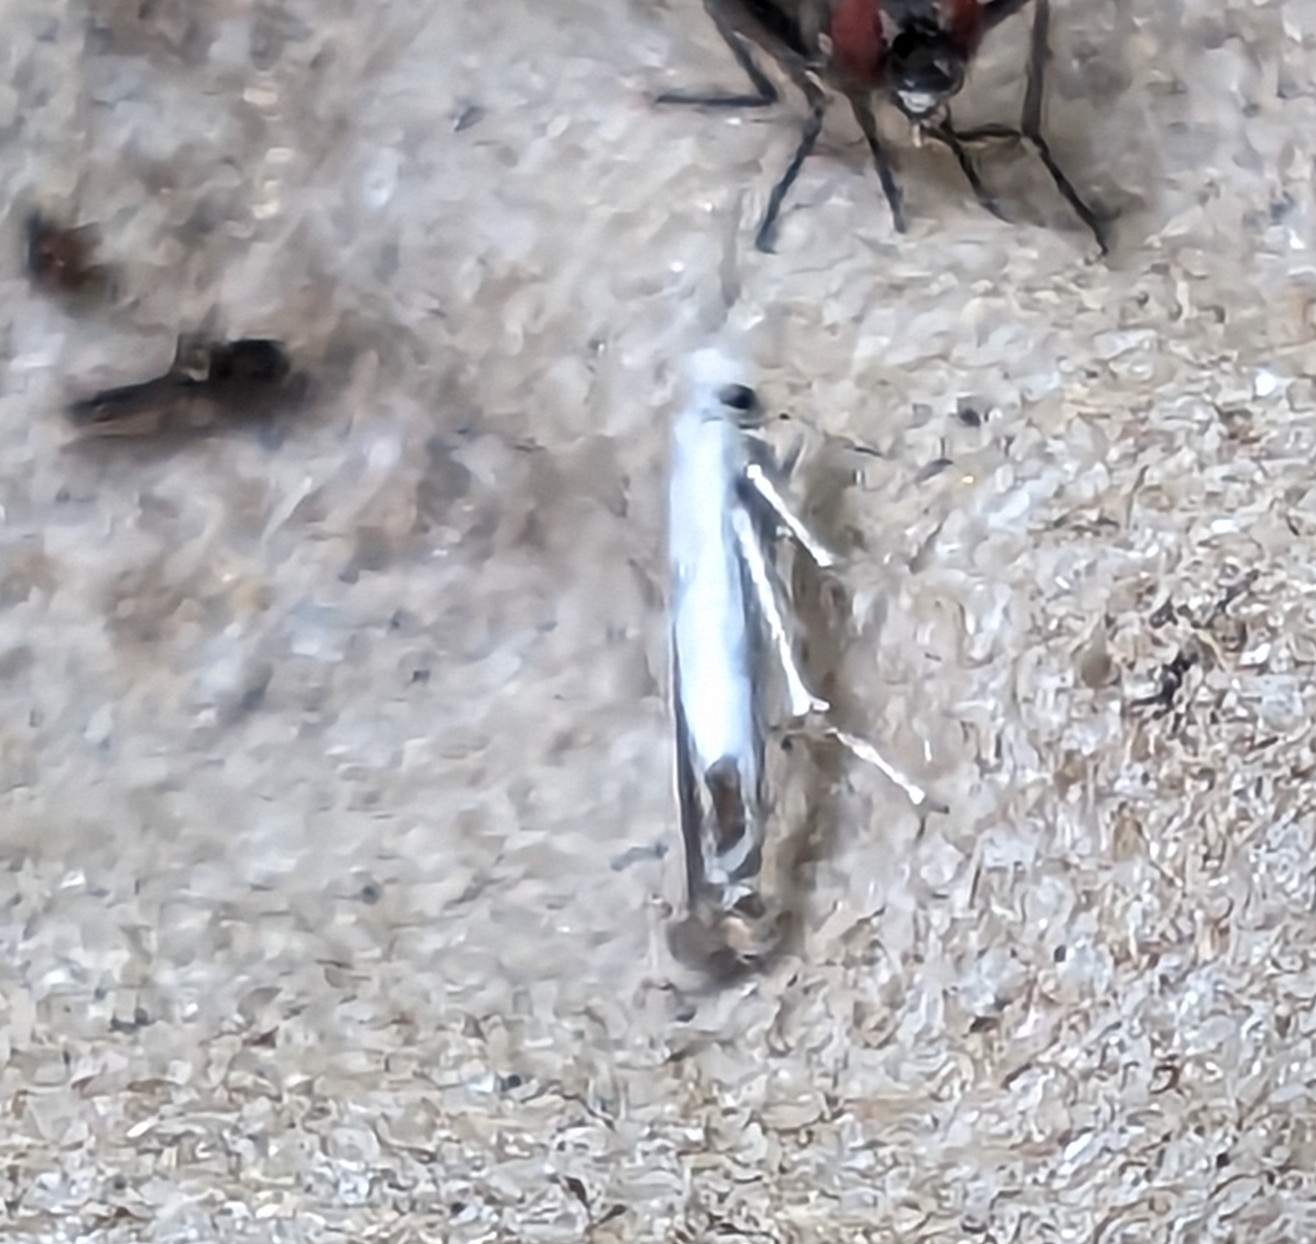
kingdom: Animalia
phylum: Arthropoda
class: Insecta
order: Lepidoptera
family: Lyonetiidae
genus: Lyonetia
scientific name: Lyonetia clerkella
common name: Apple leaf miner
